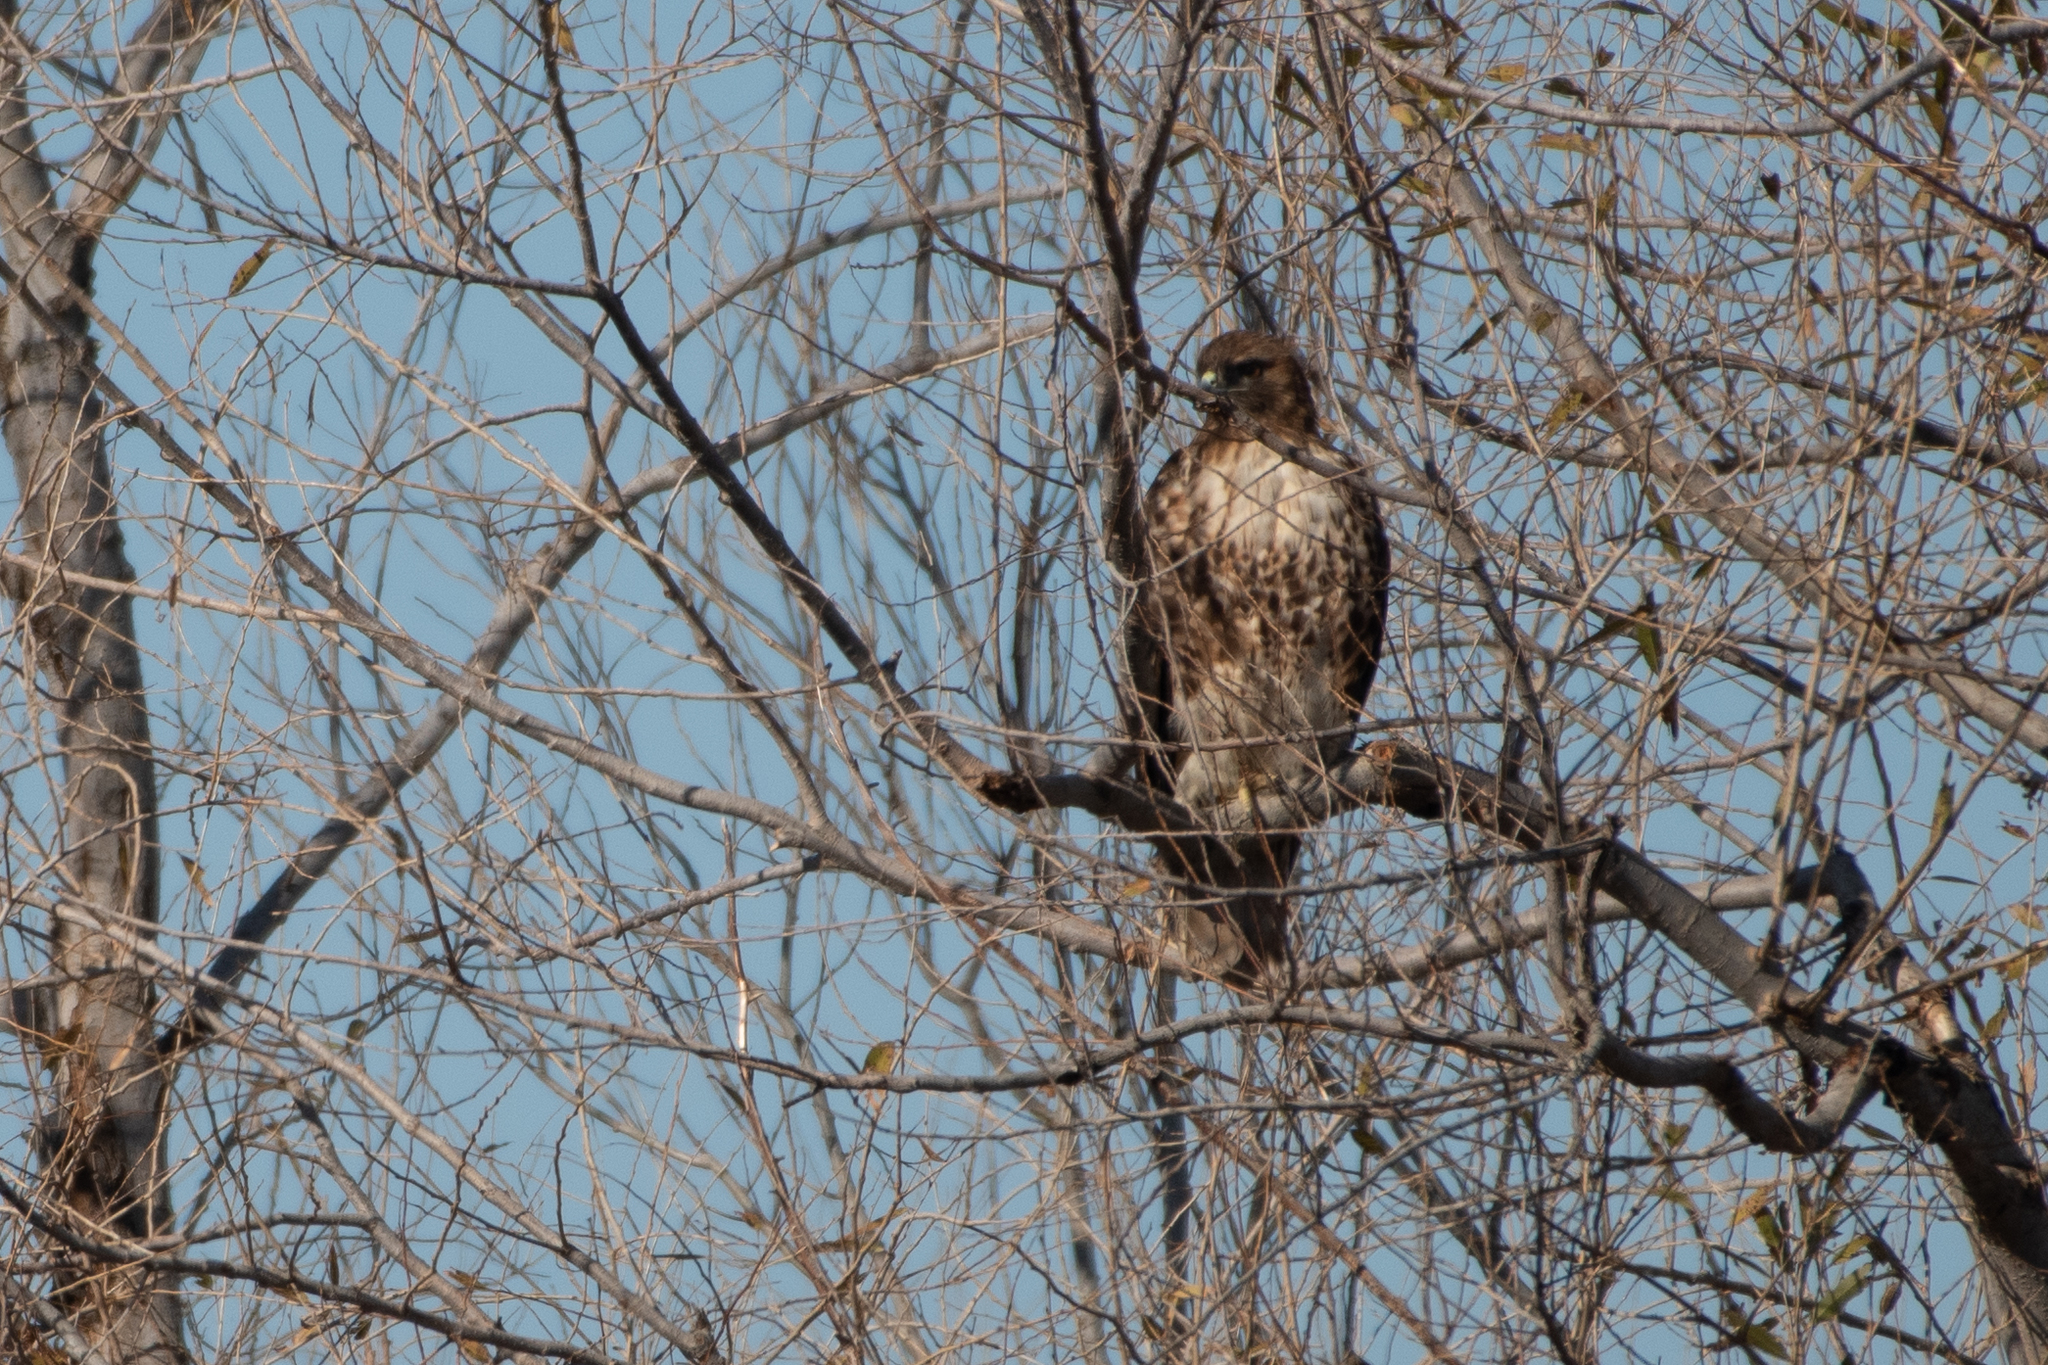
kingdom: Animalia
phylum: Chordata
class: Aves
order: Accipitriformes
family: Accipitridae
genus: Buteo
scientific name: Buteo jamaicensis
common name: Red-tailed hawk
